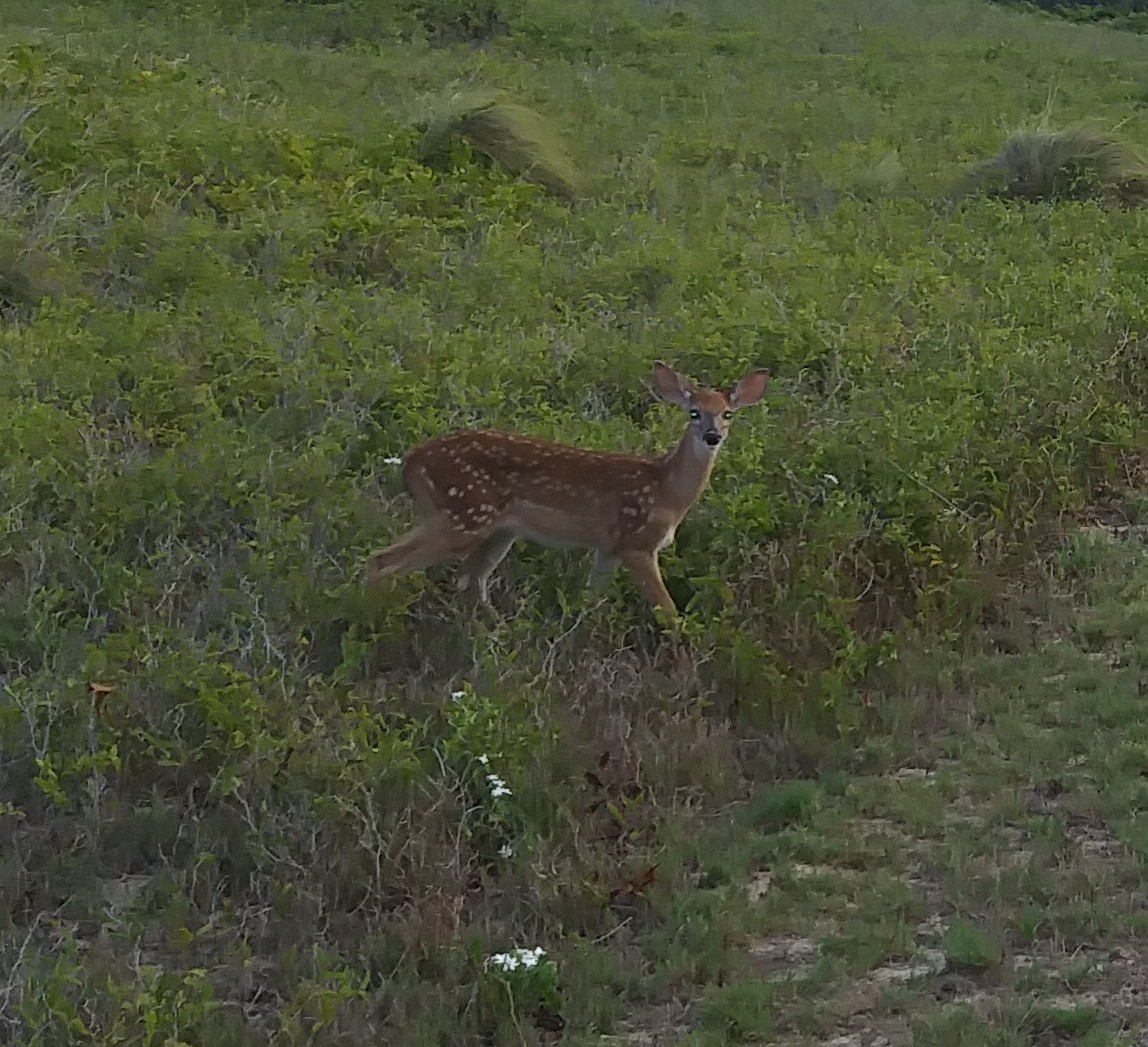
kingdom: Animalia
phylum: Chordata
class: Mammalia
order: Artiodactyla
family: Cervidae
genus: Odocoileus
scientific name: Odocoileus virginianus
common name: White-tailed deer
